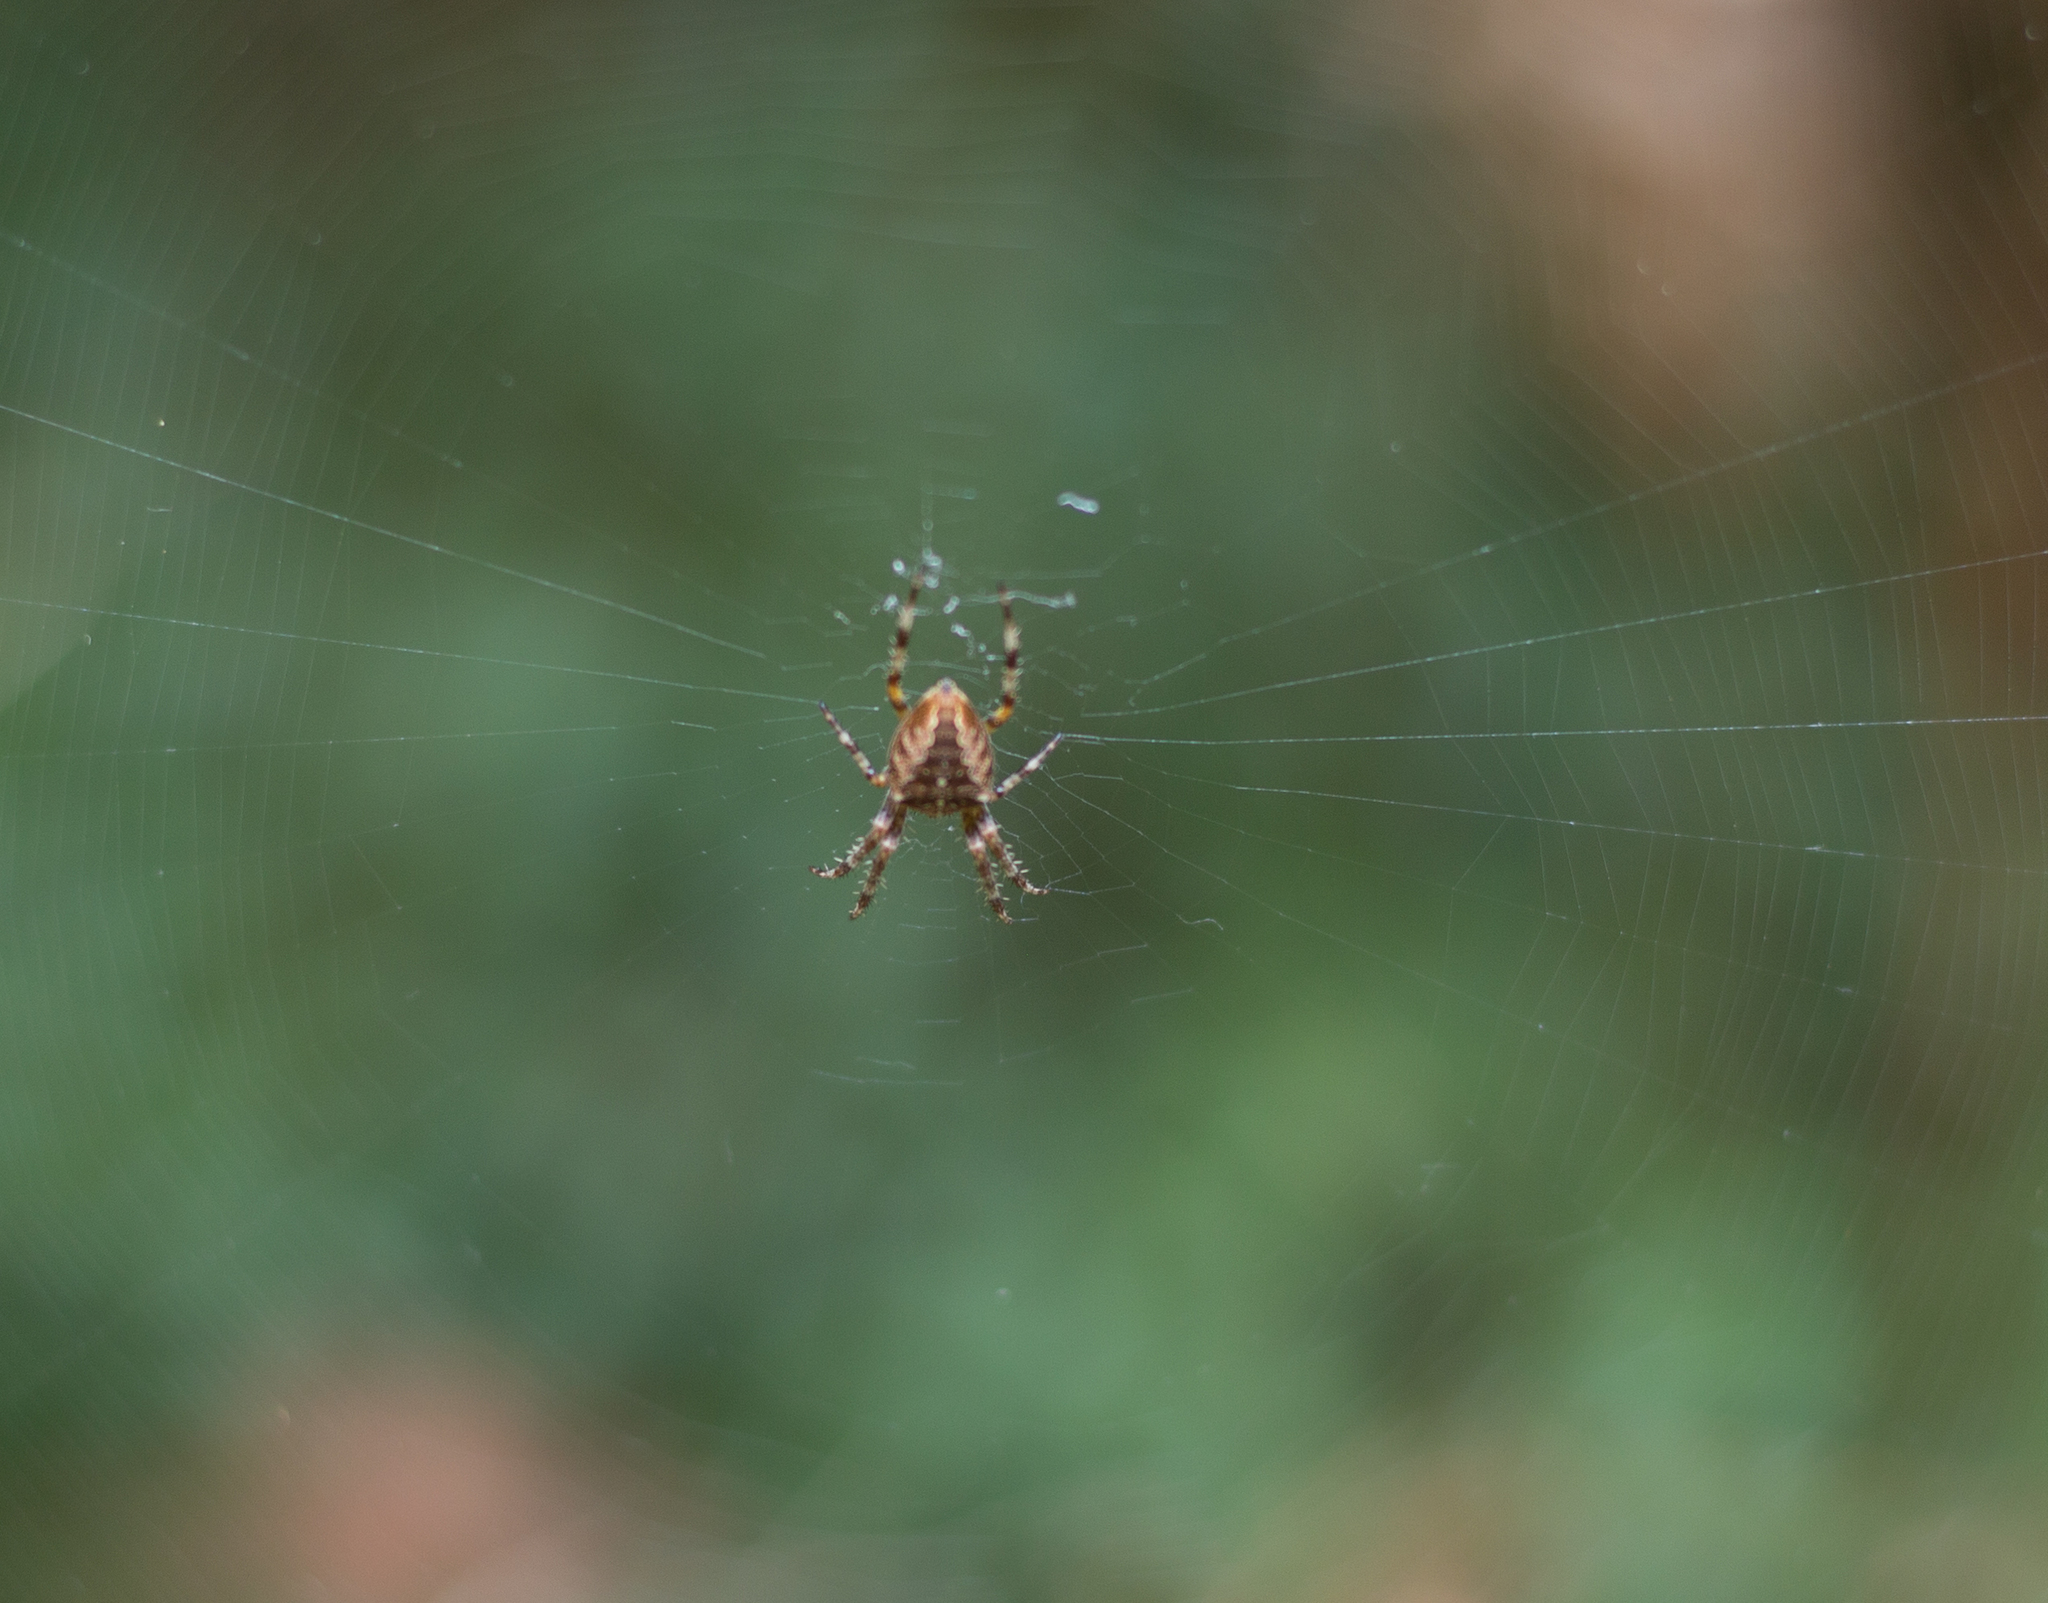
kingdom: Animalia
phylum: Arthropoda
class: Arachnida
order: Araneae
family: Araneidae
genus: Araneus
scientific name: Araneus diadematus
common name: Cross orbweaver
